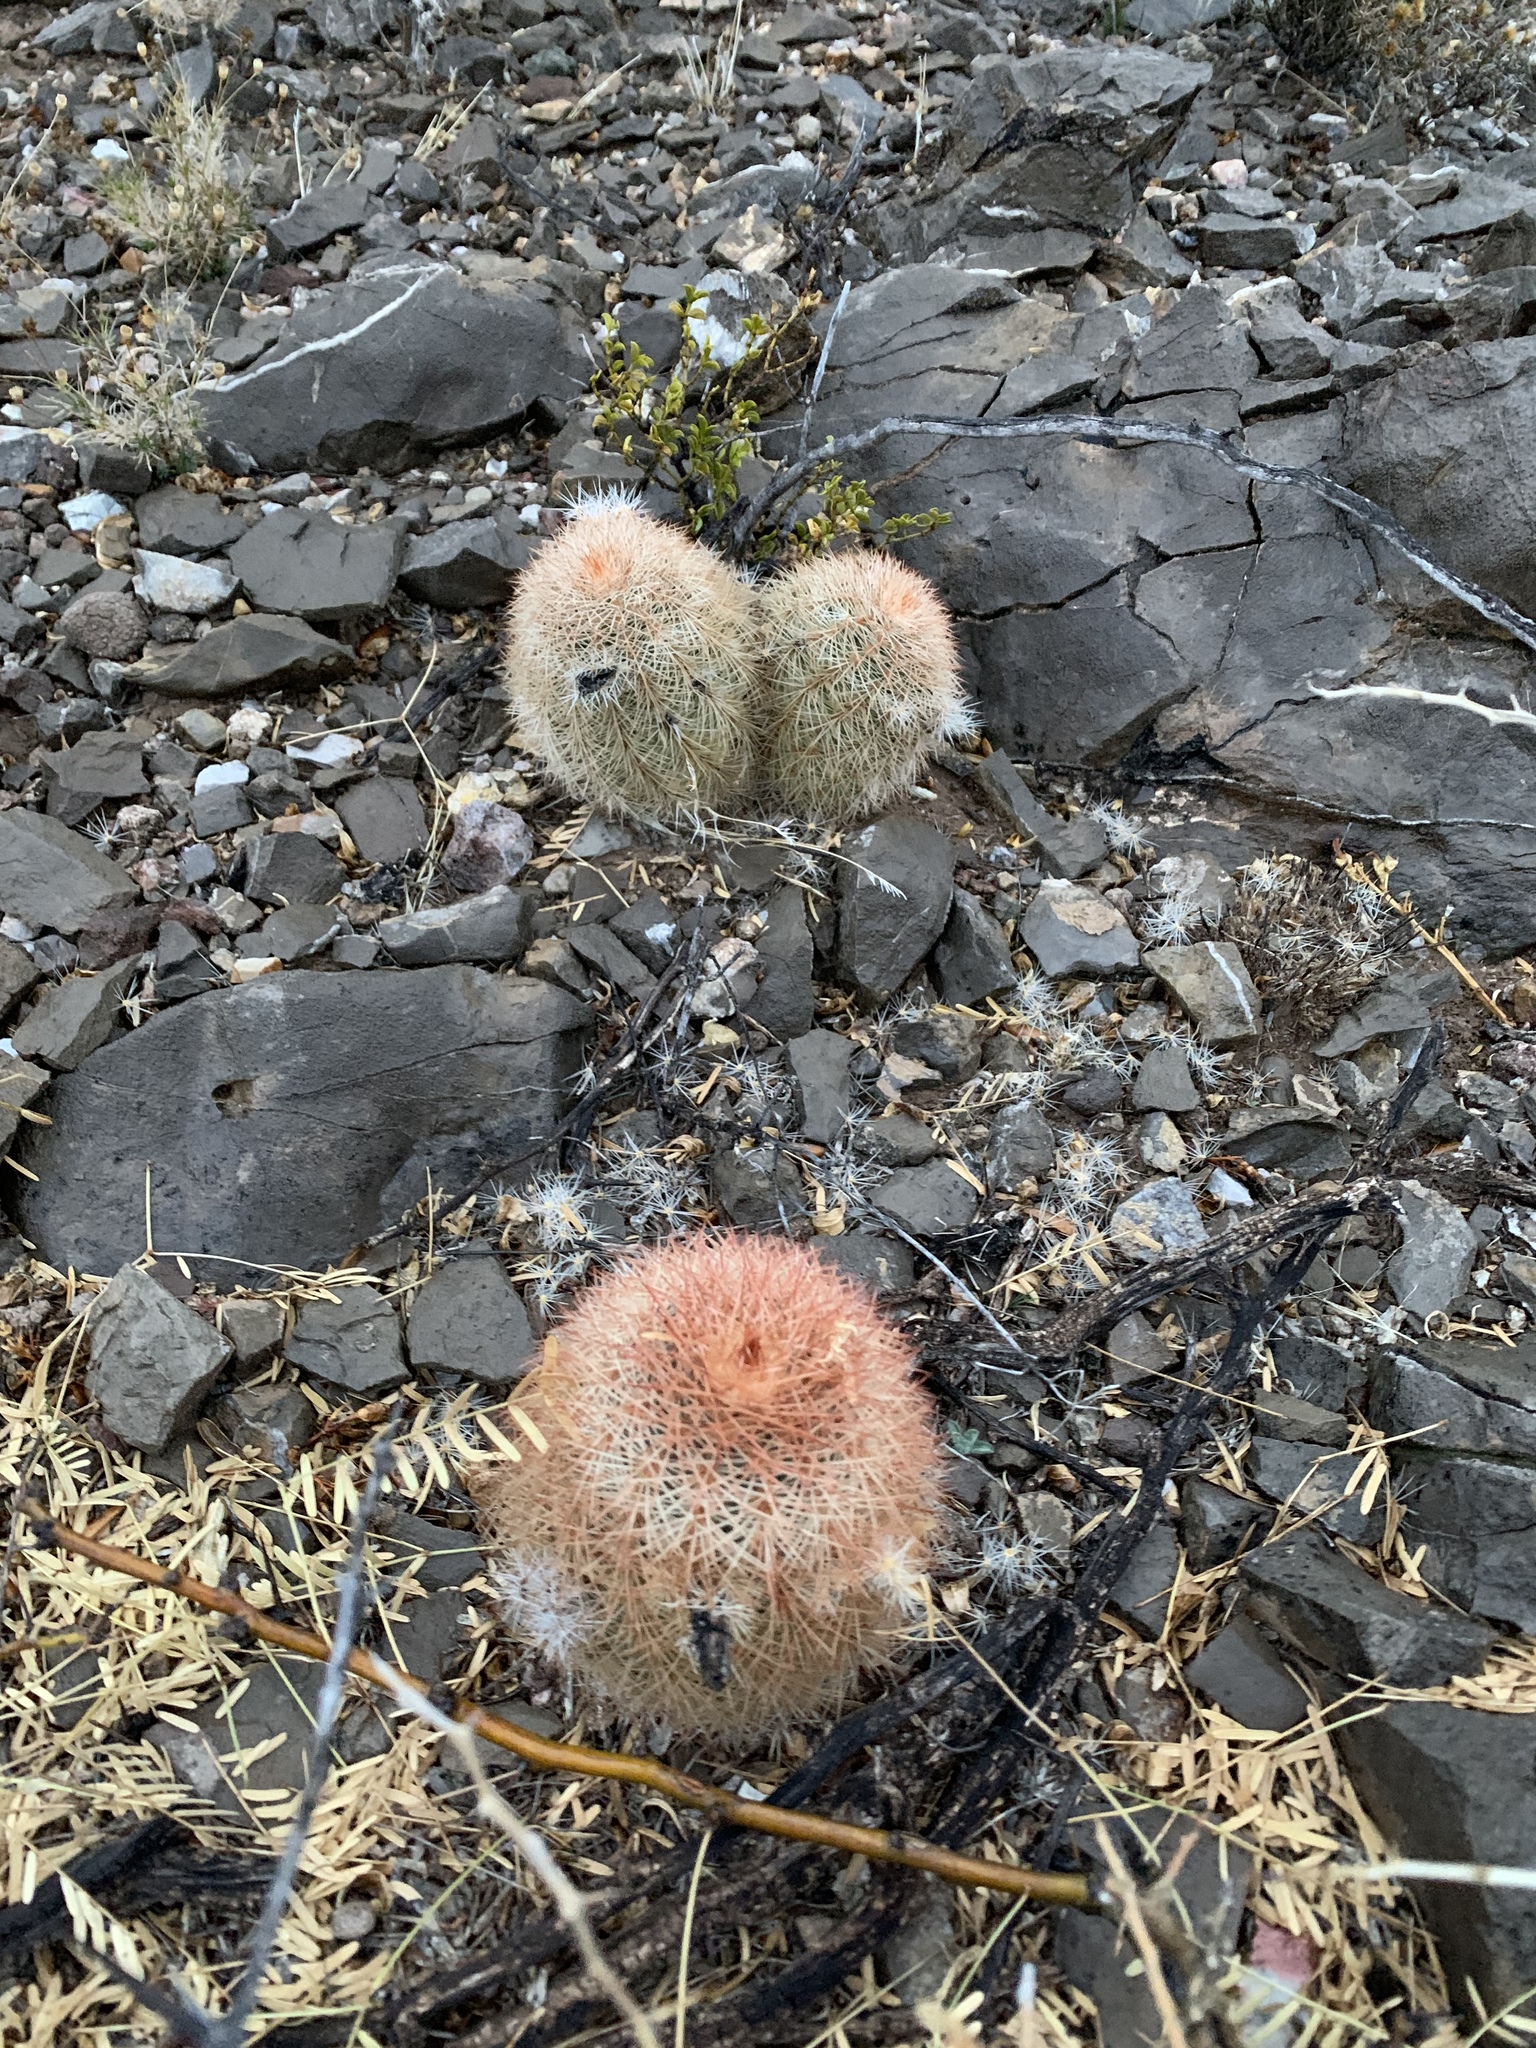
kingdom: Plantae
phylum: Tracheophyta
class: Magnoliopsida
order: Caryophyllales
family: Cactaceae
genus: Echinocereus
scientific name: Echinocereus dasyacanthus
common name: Spiny hedgehog cactus
